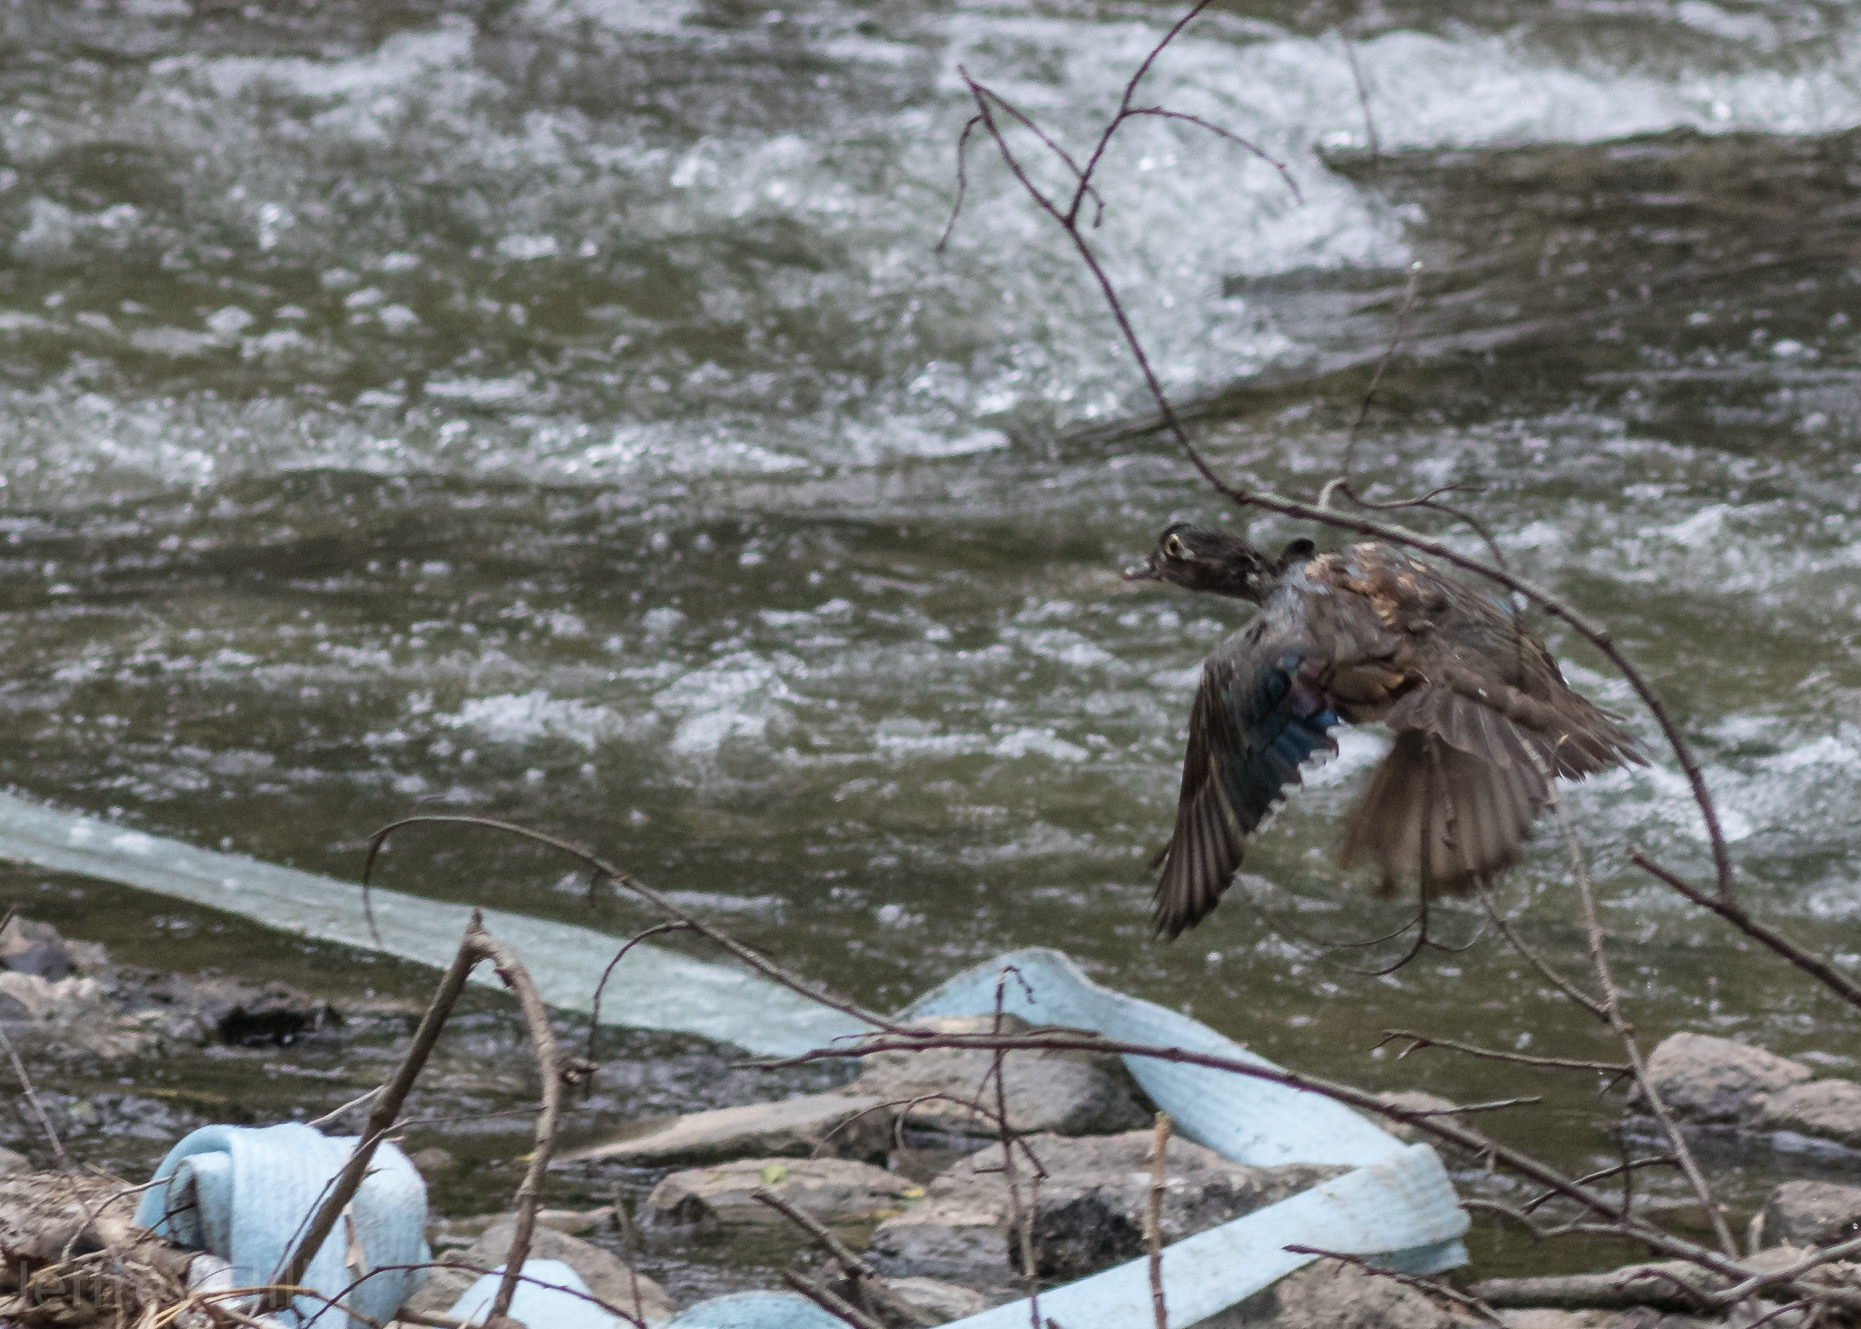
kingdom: Animalia
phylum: Chordata
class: Aves
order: Anseriformes
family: Anatidae
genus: Aix
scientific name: Aix sponsa
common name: Wood duck
